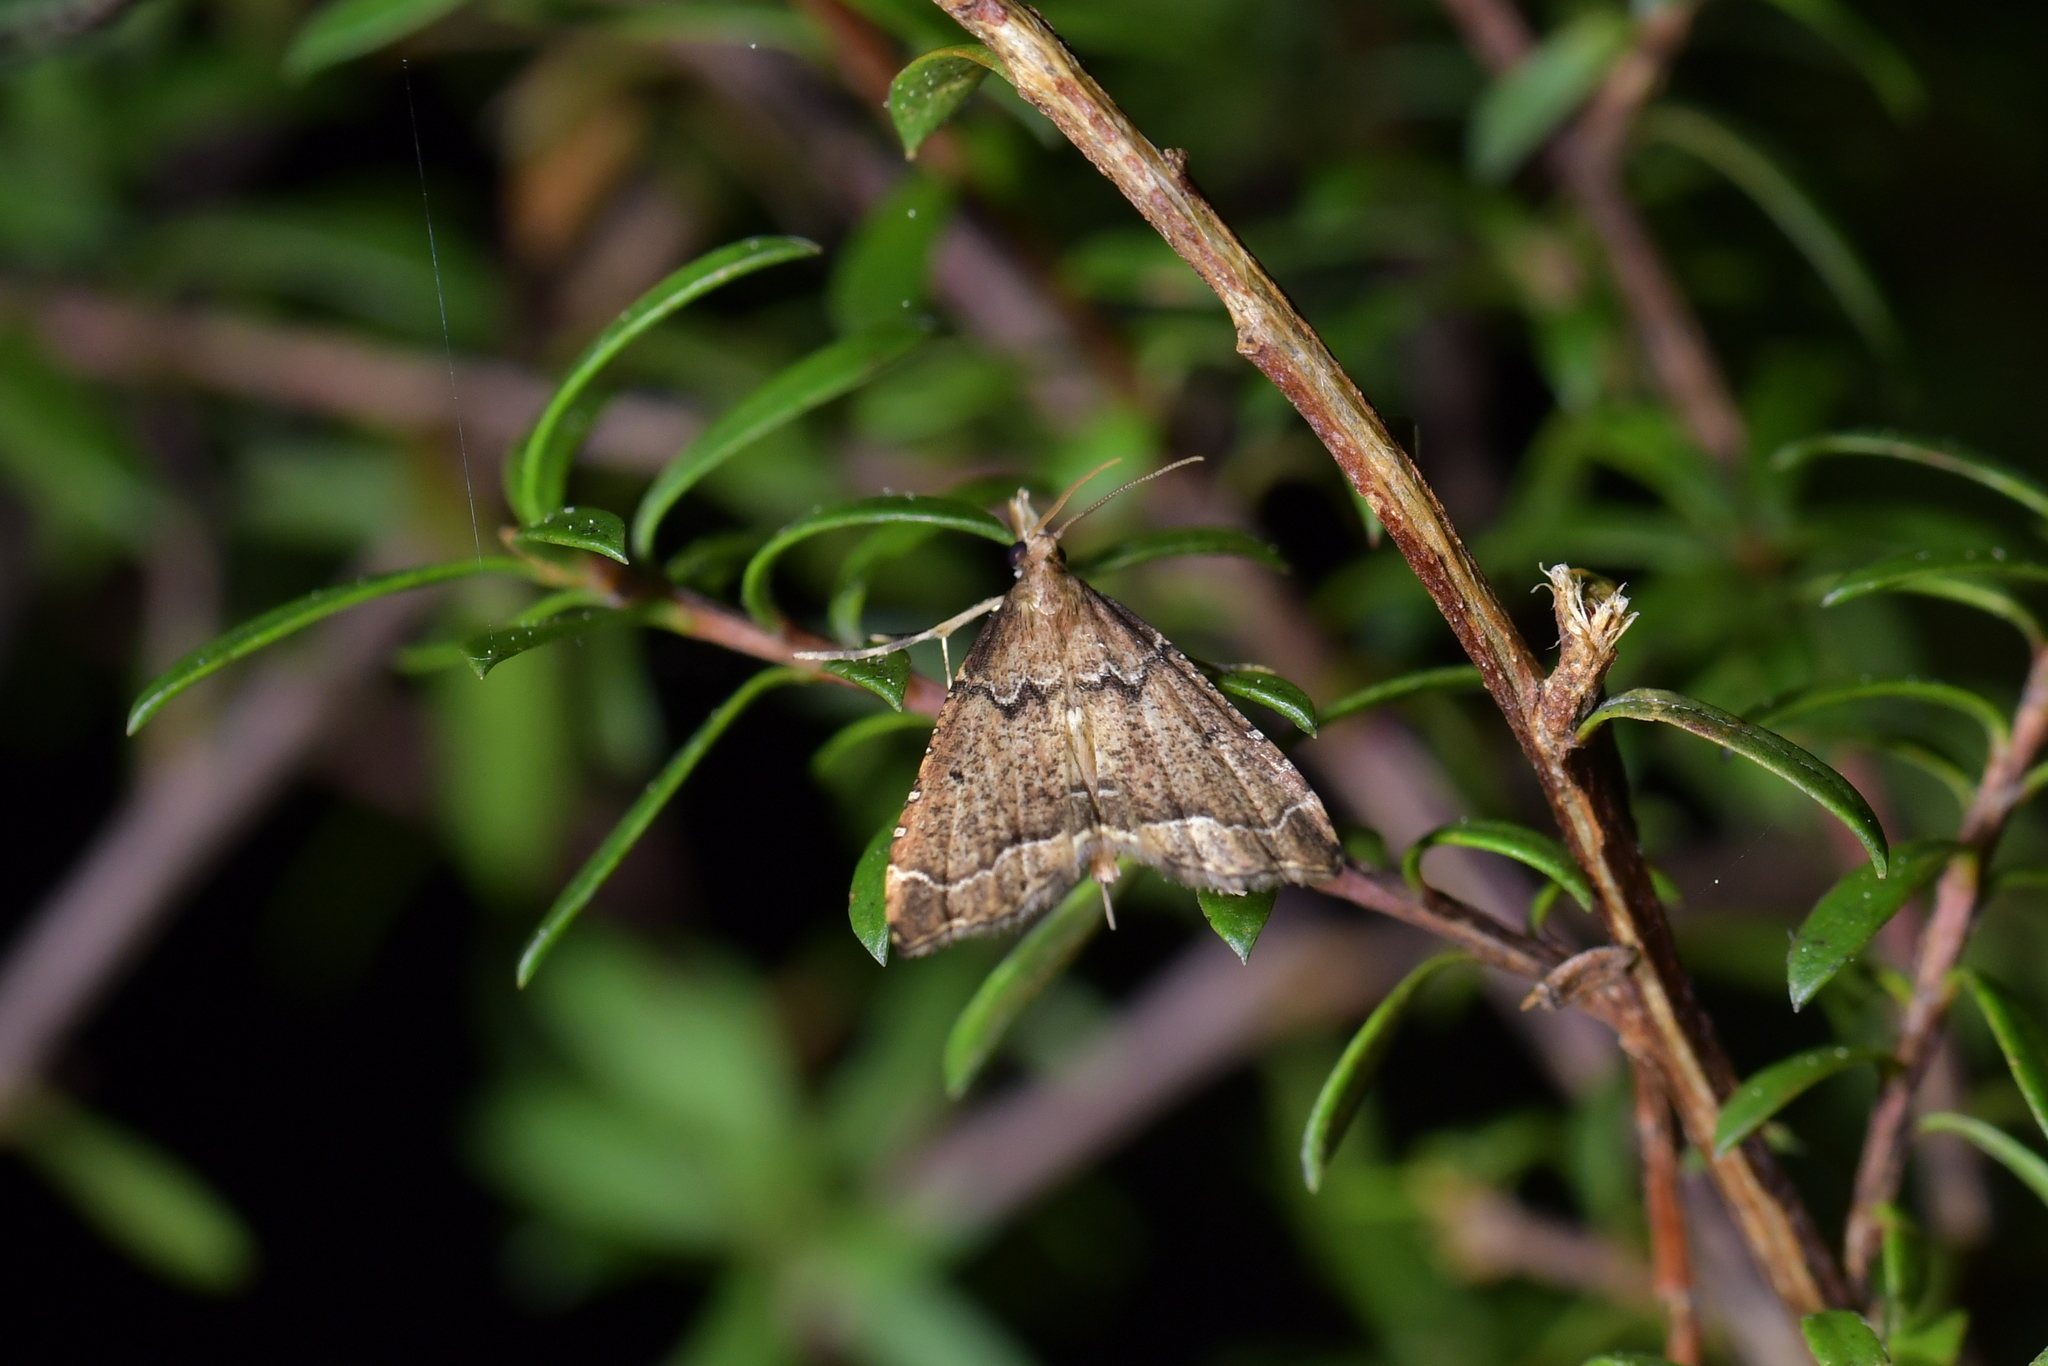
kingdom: Animalia
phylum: Arthropoda
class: Insecta
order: Lepidoptera
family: Crambidae
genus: Diplopseustis
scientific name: Diplopseustis perieresalis
